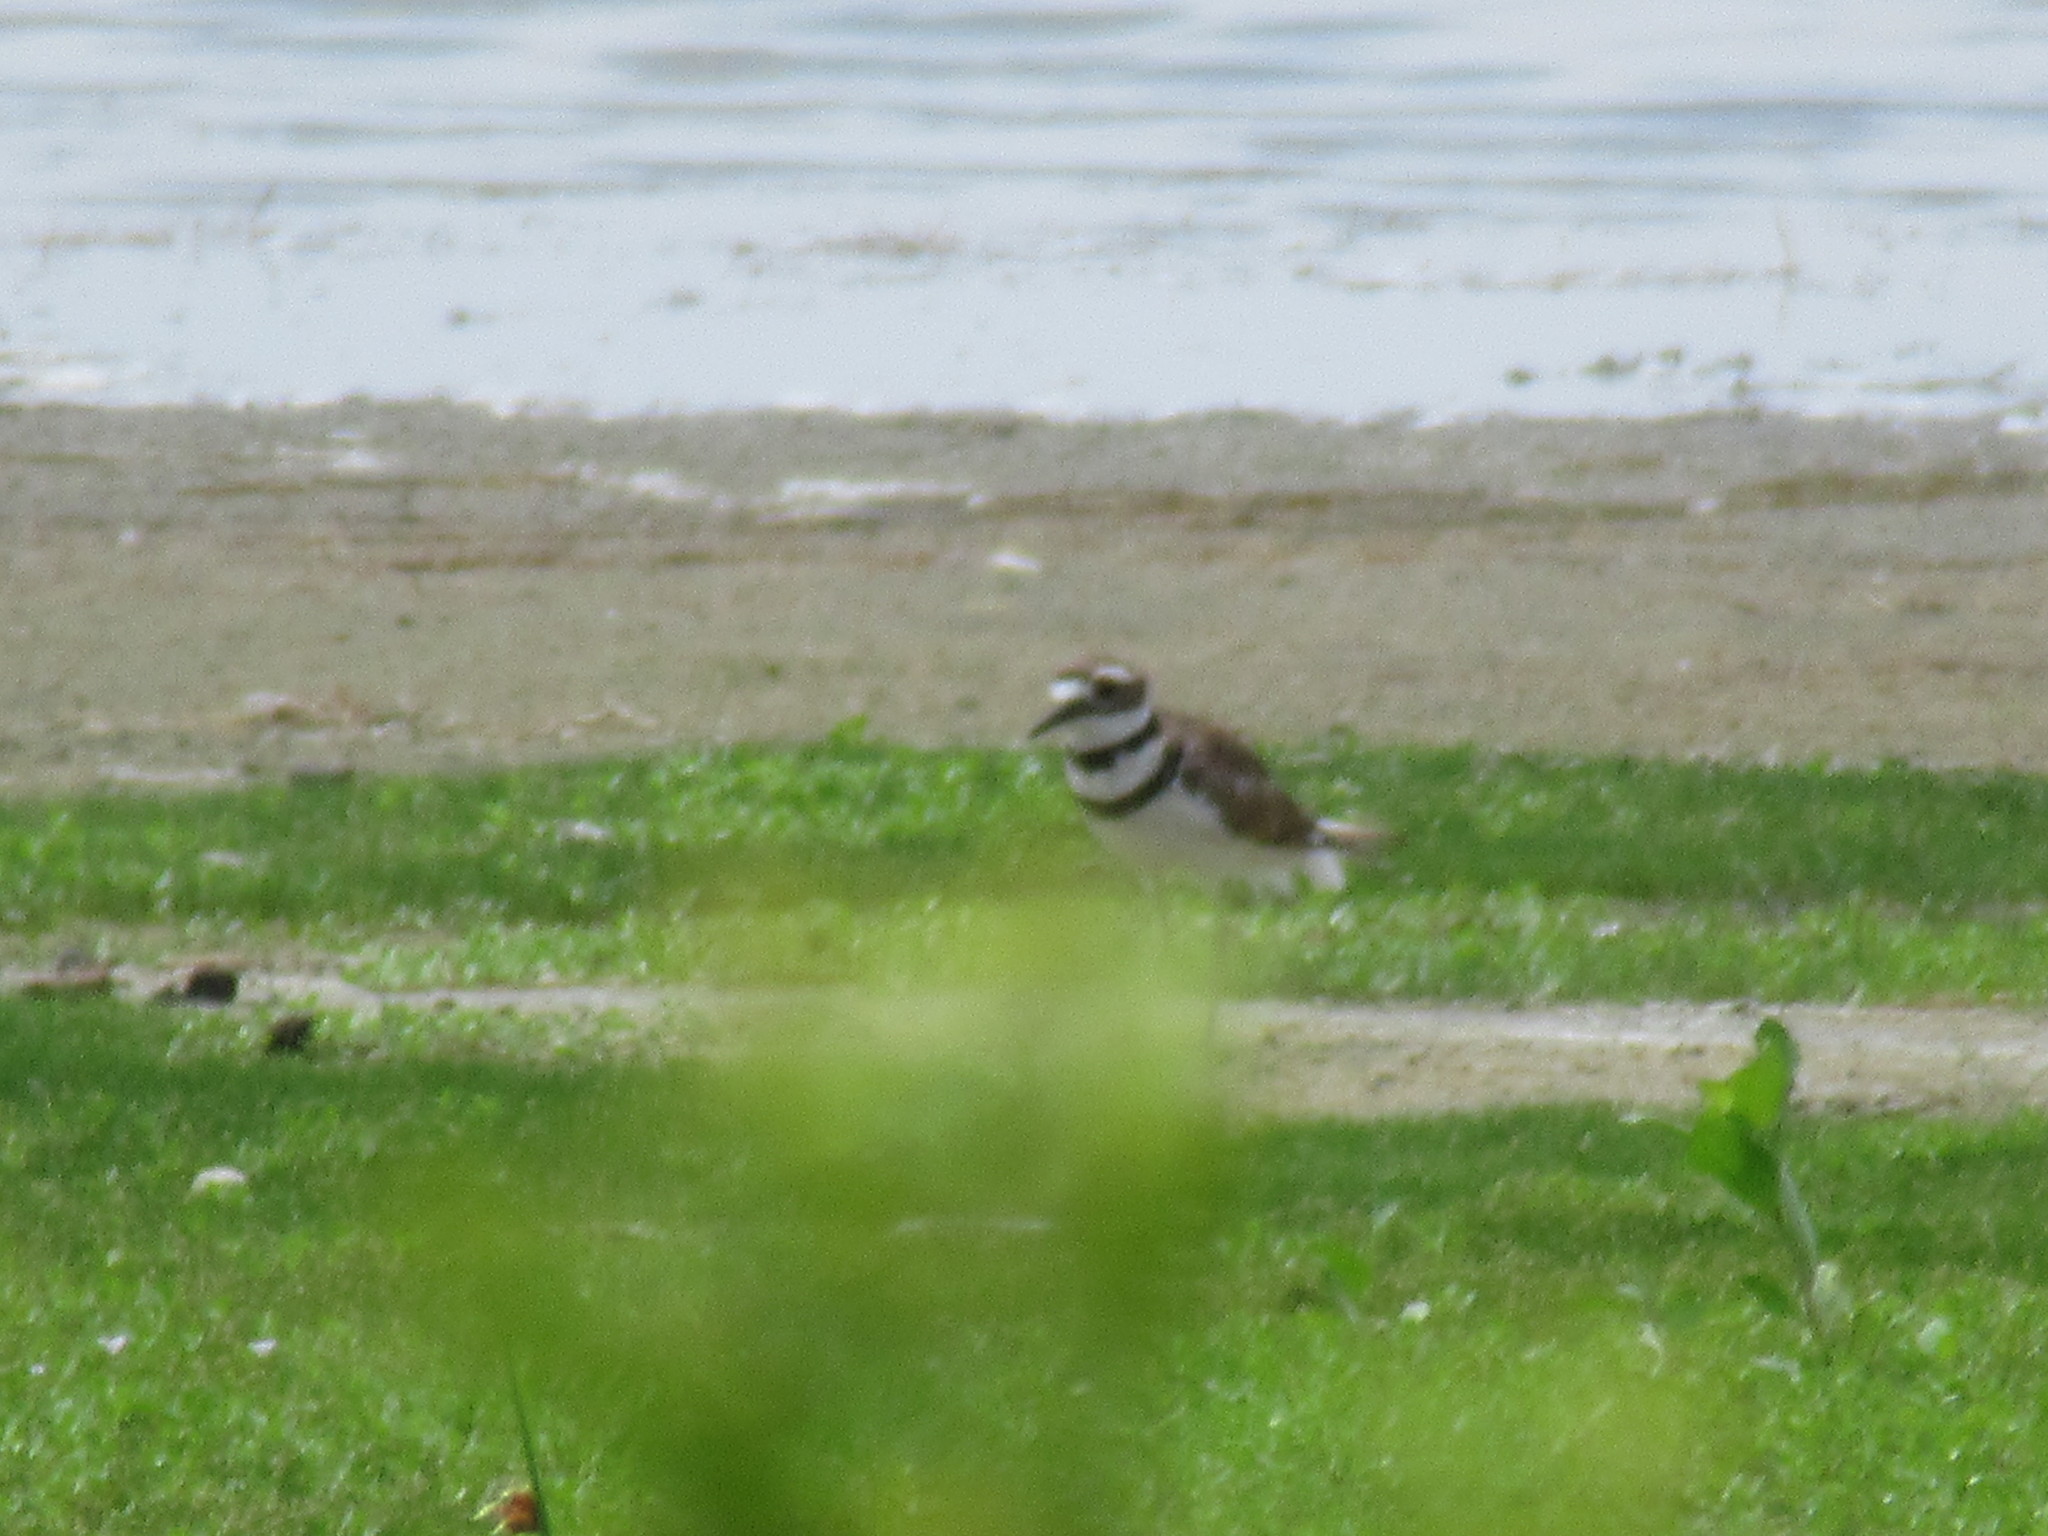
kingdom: Animalia
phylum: Chordata
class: Aves
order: Charadriiformes
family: Charadriidae
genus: Charadrius
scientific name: Charadrius vociferus
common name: Killdeer
